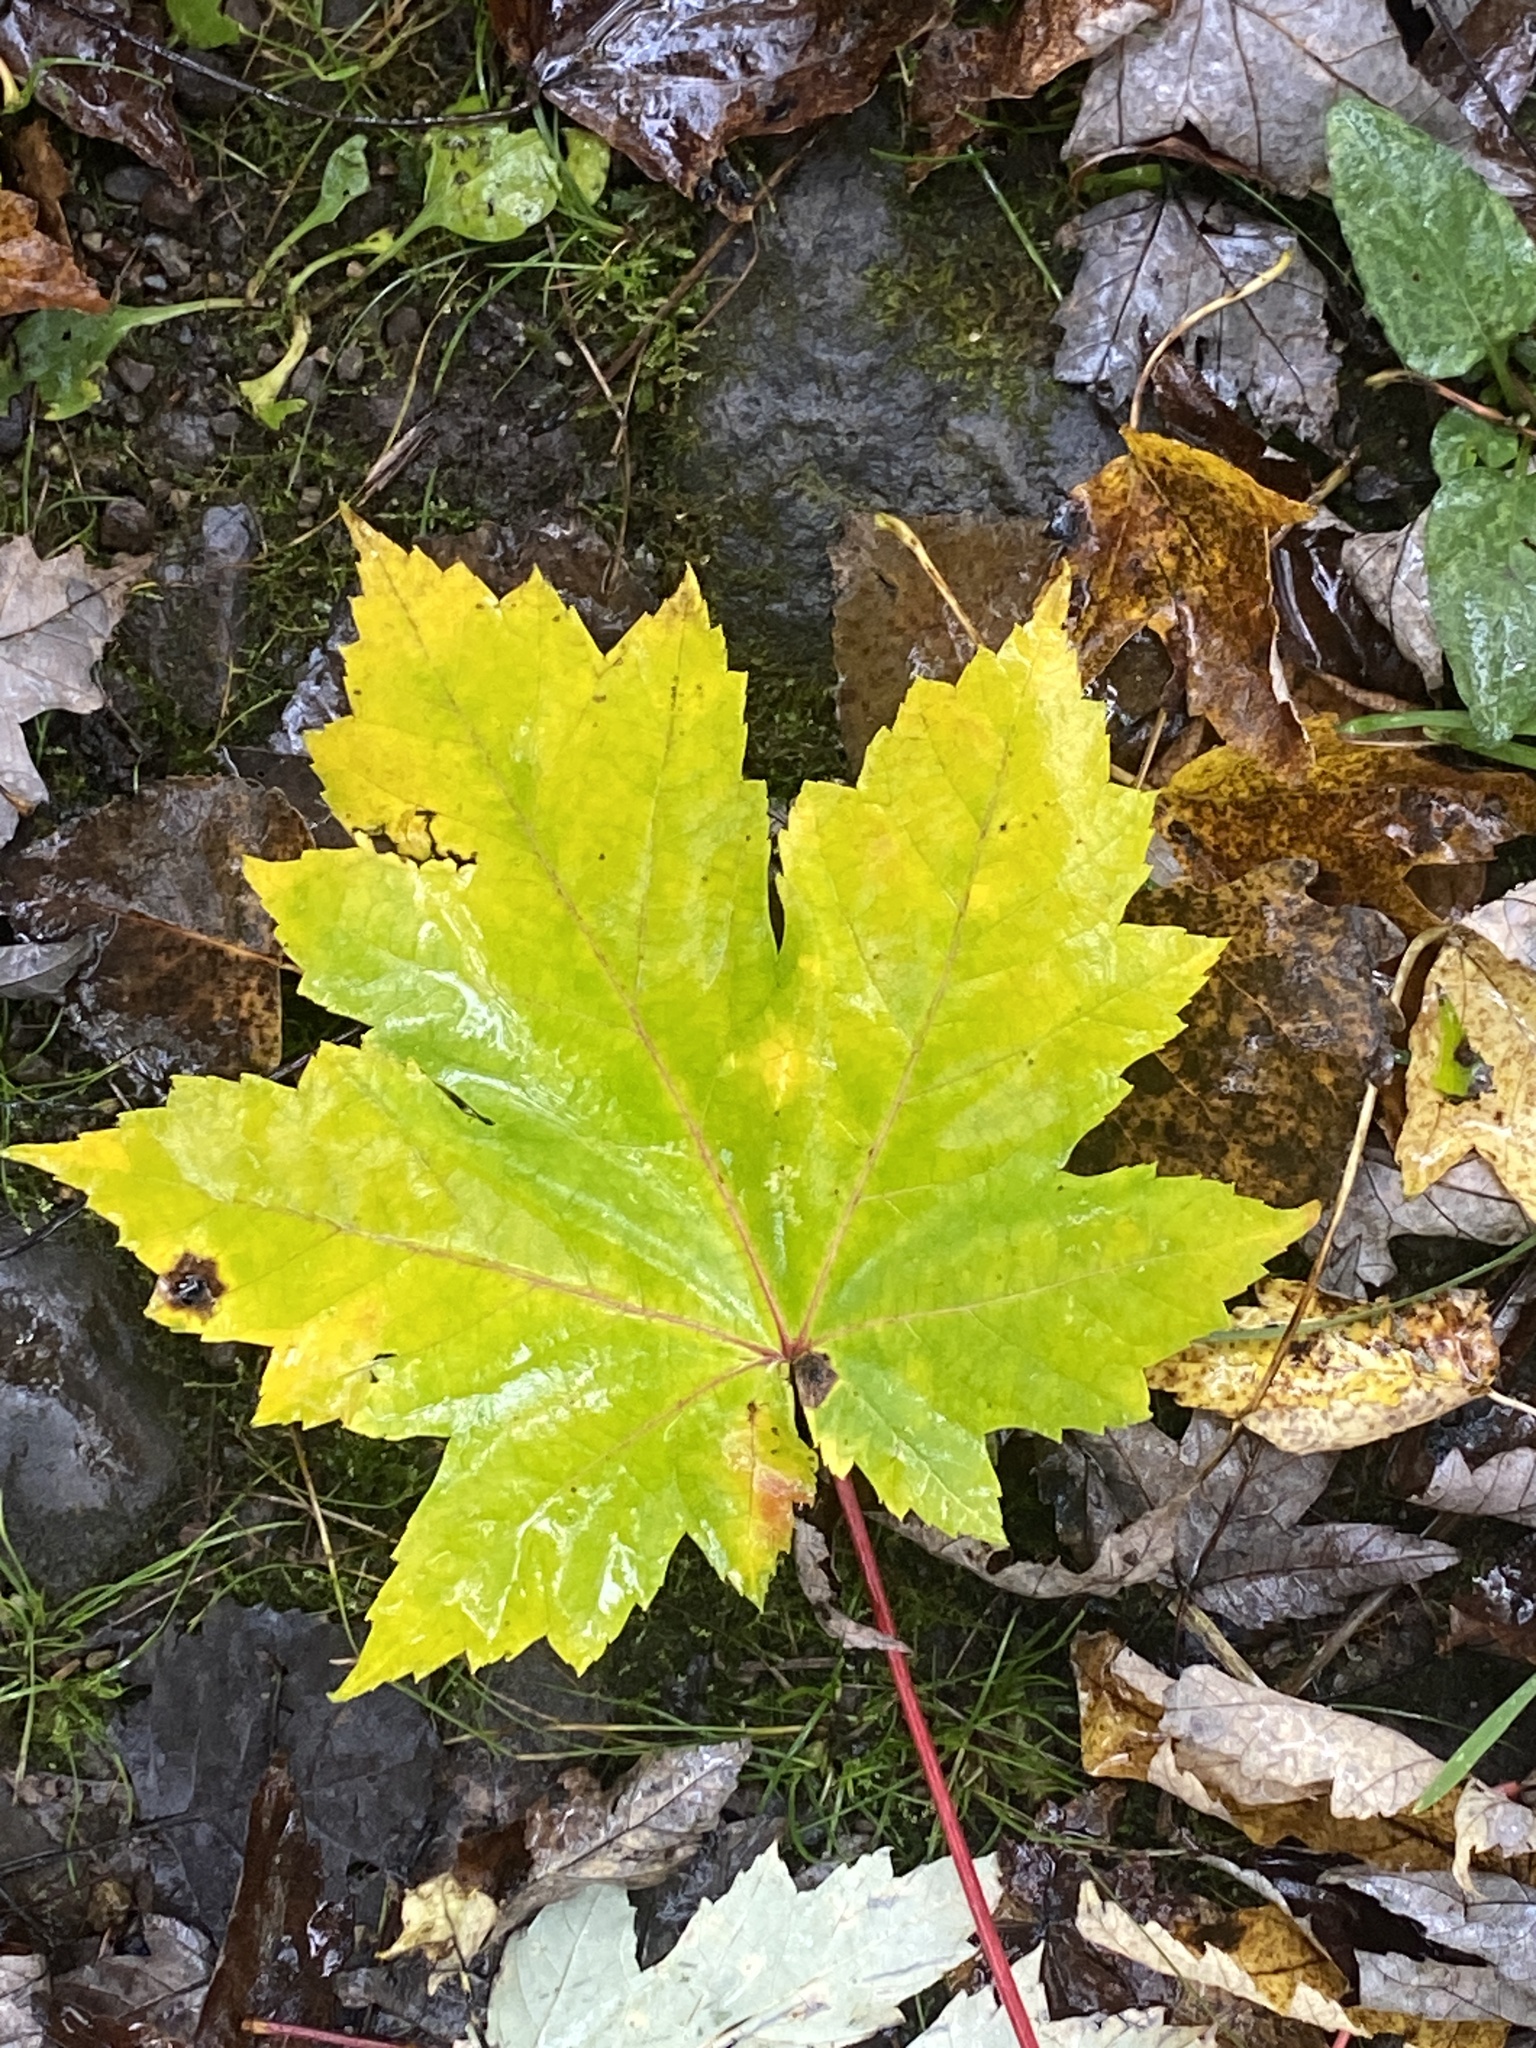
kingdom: Plantae
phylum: Tracheophyta
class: Magnoliopsida
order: Sapindales
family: Sapindaceae
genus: Acer
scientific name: Acer saccharinum
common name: Silver maple
